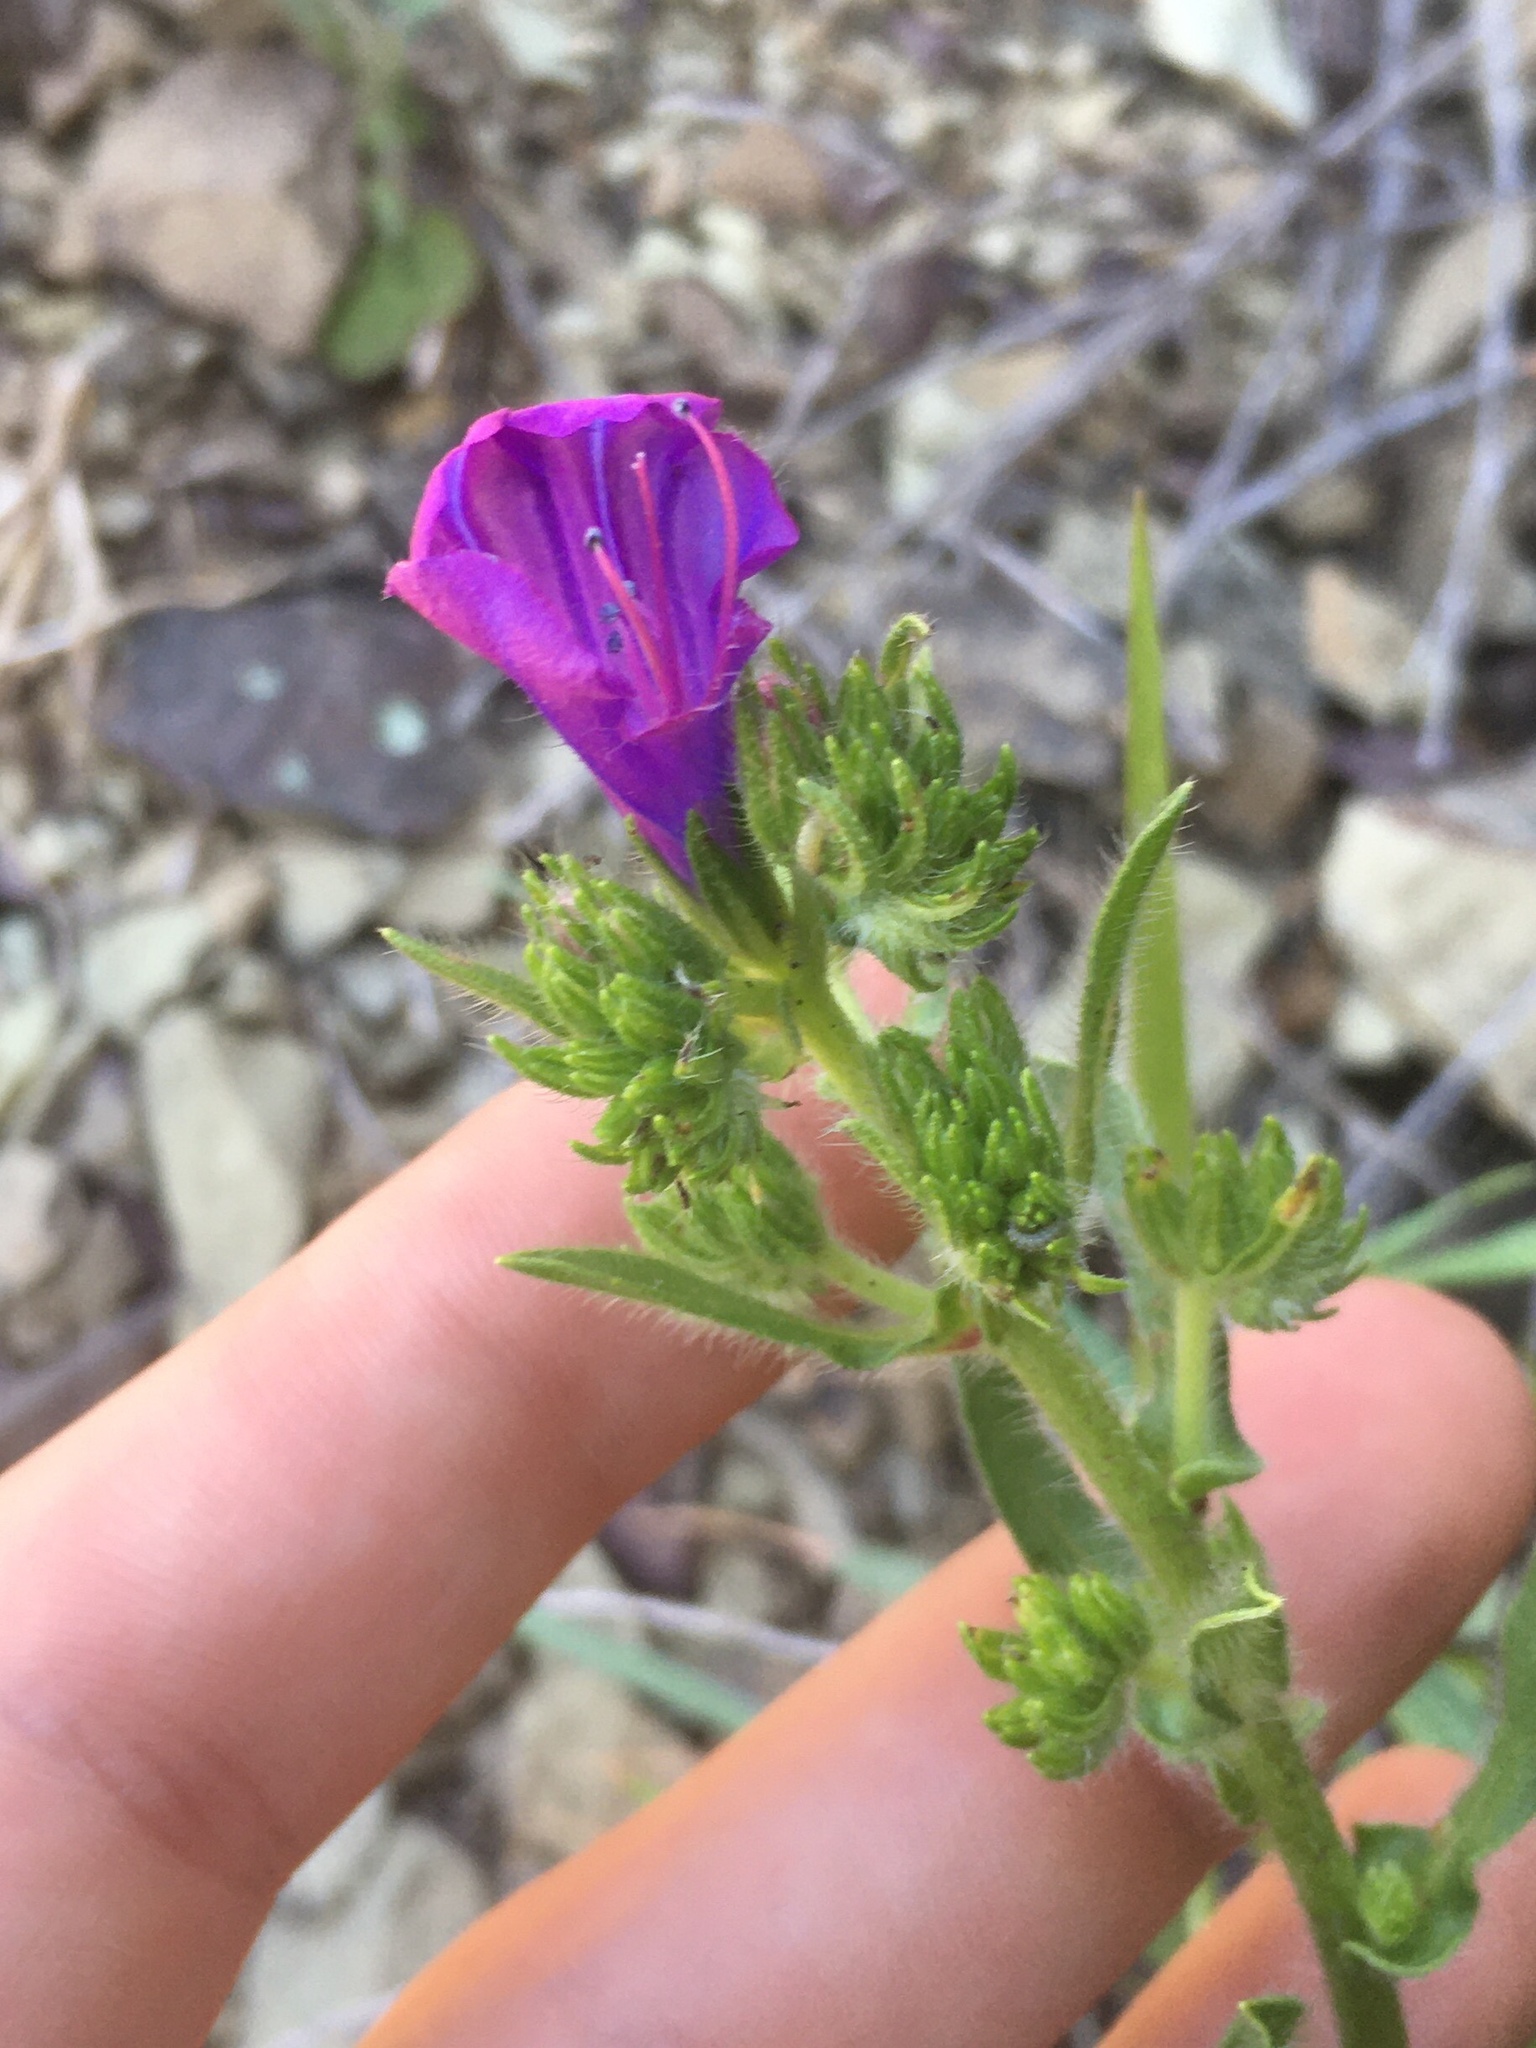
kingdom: Plantae
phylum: Tracheophyta
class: Magnoliopsida
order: Boraginales
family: Boraginaceae
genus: Echium
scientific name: Echium plantagineum
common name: Purple viper's-bugloss
